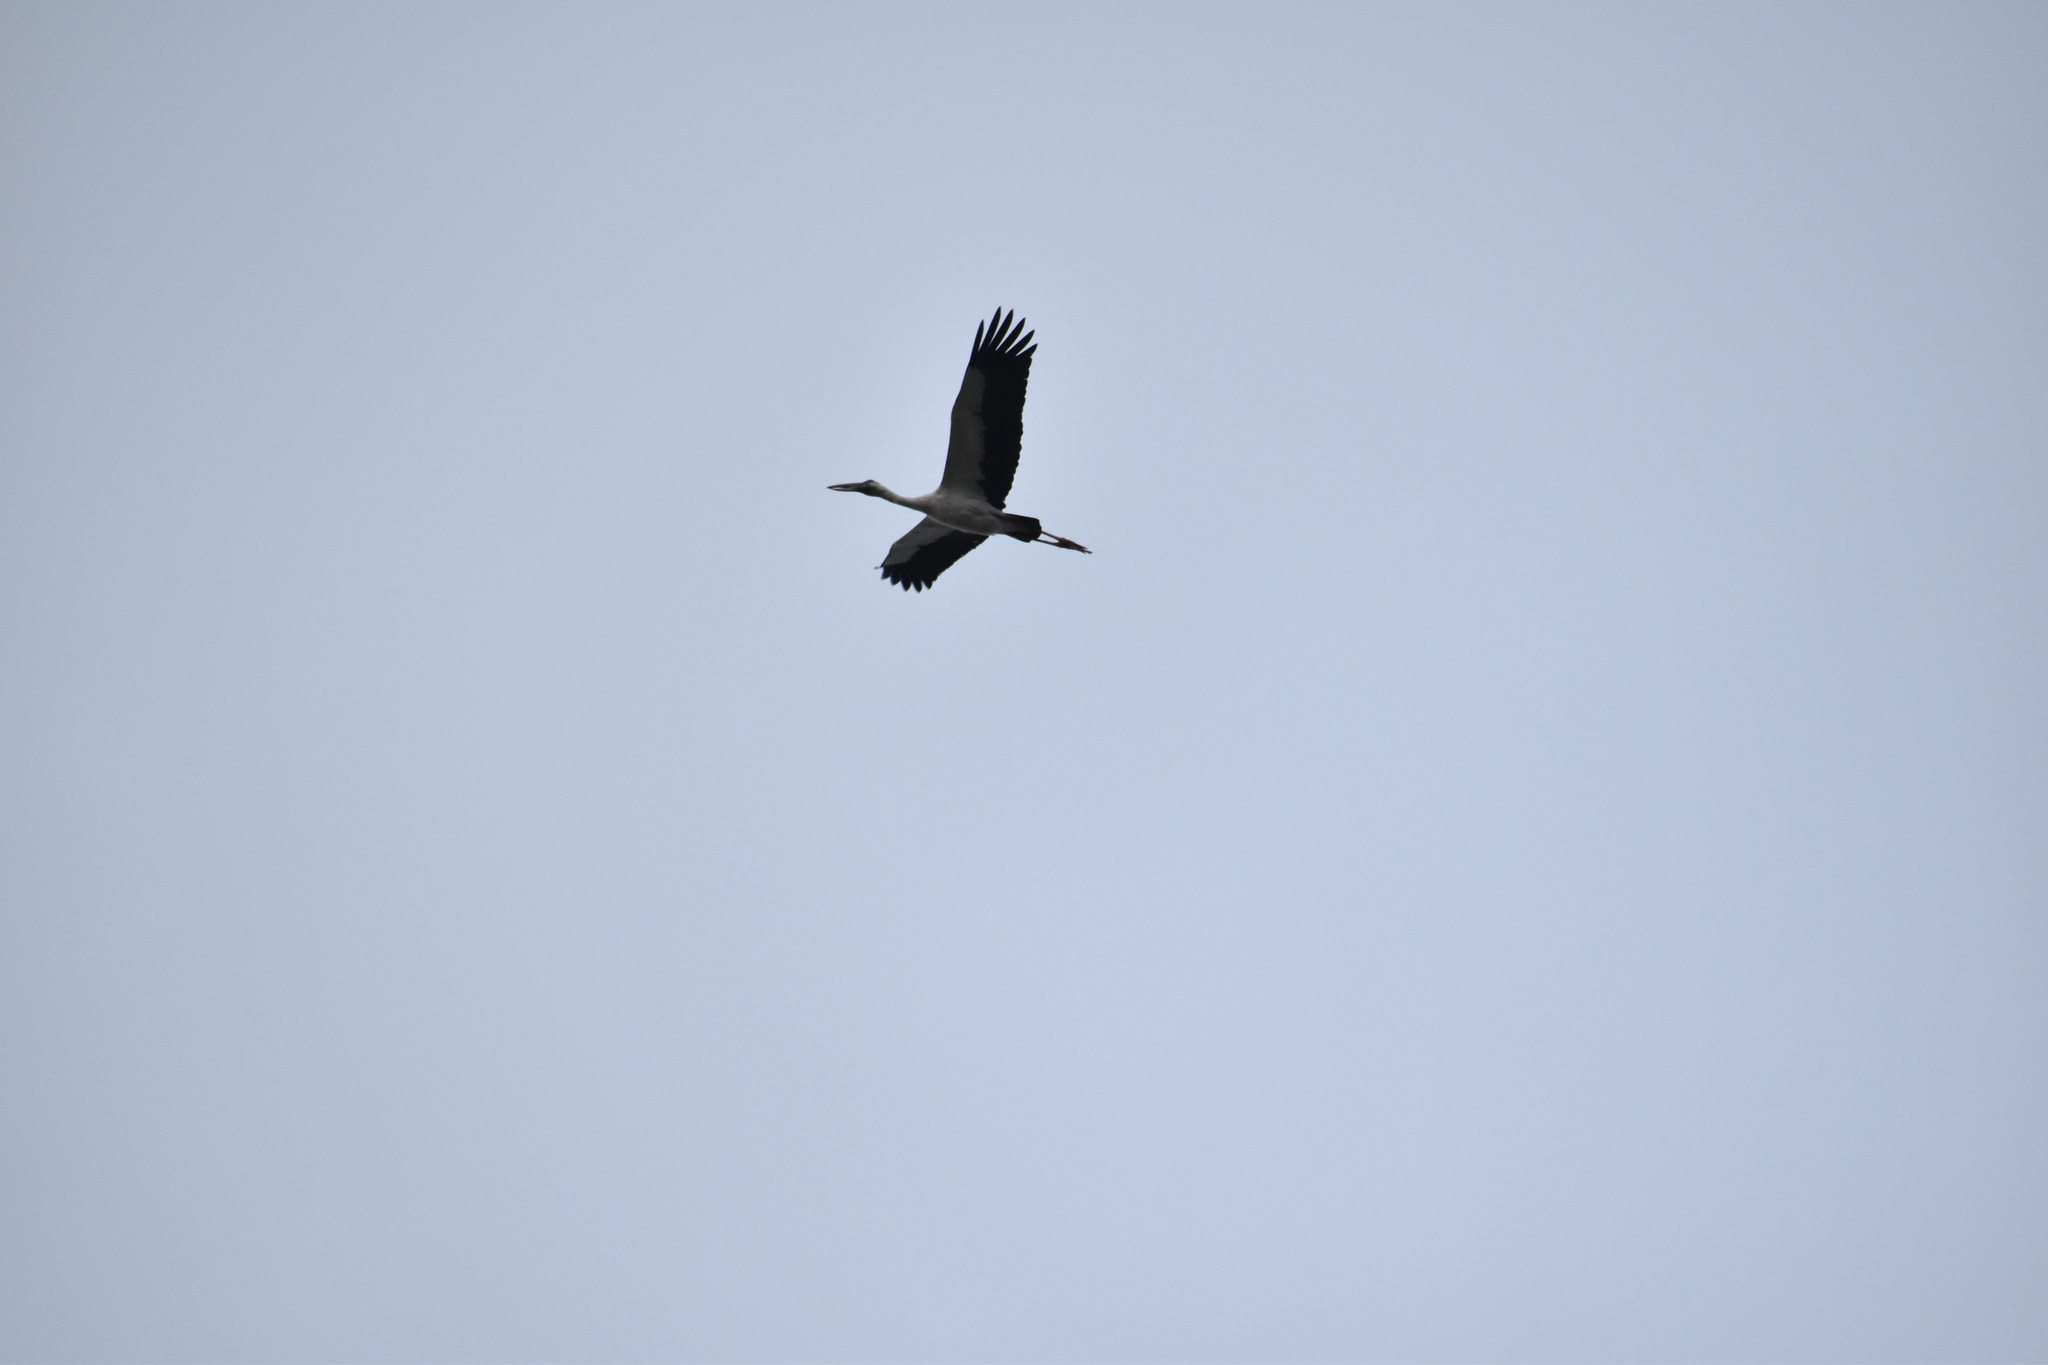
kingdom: Animalia
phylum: Chordata
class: Aves
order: Ciconiiformes
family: Ciconiidae
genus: Anastomus
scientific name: Anastomus oscitans
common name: Asian openbill
